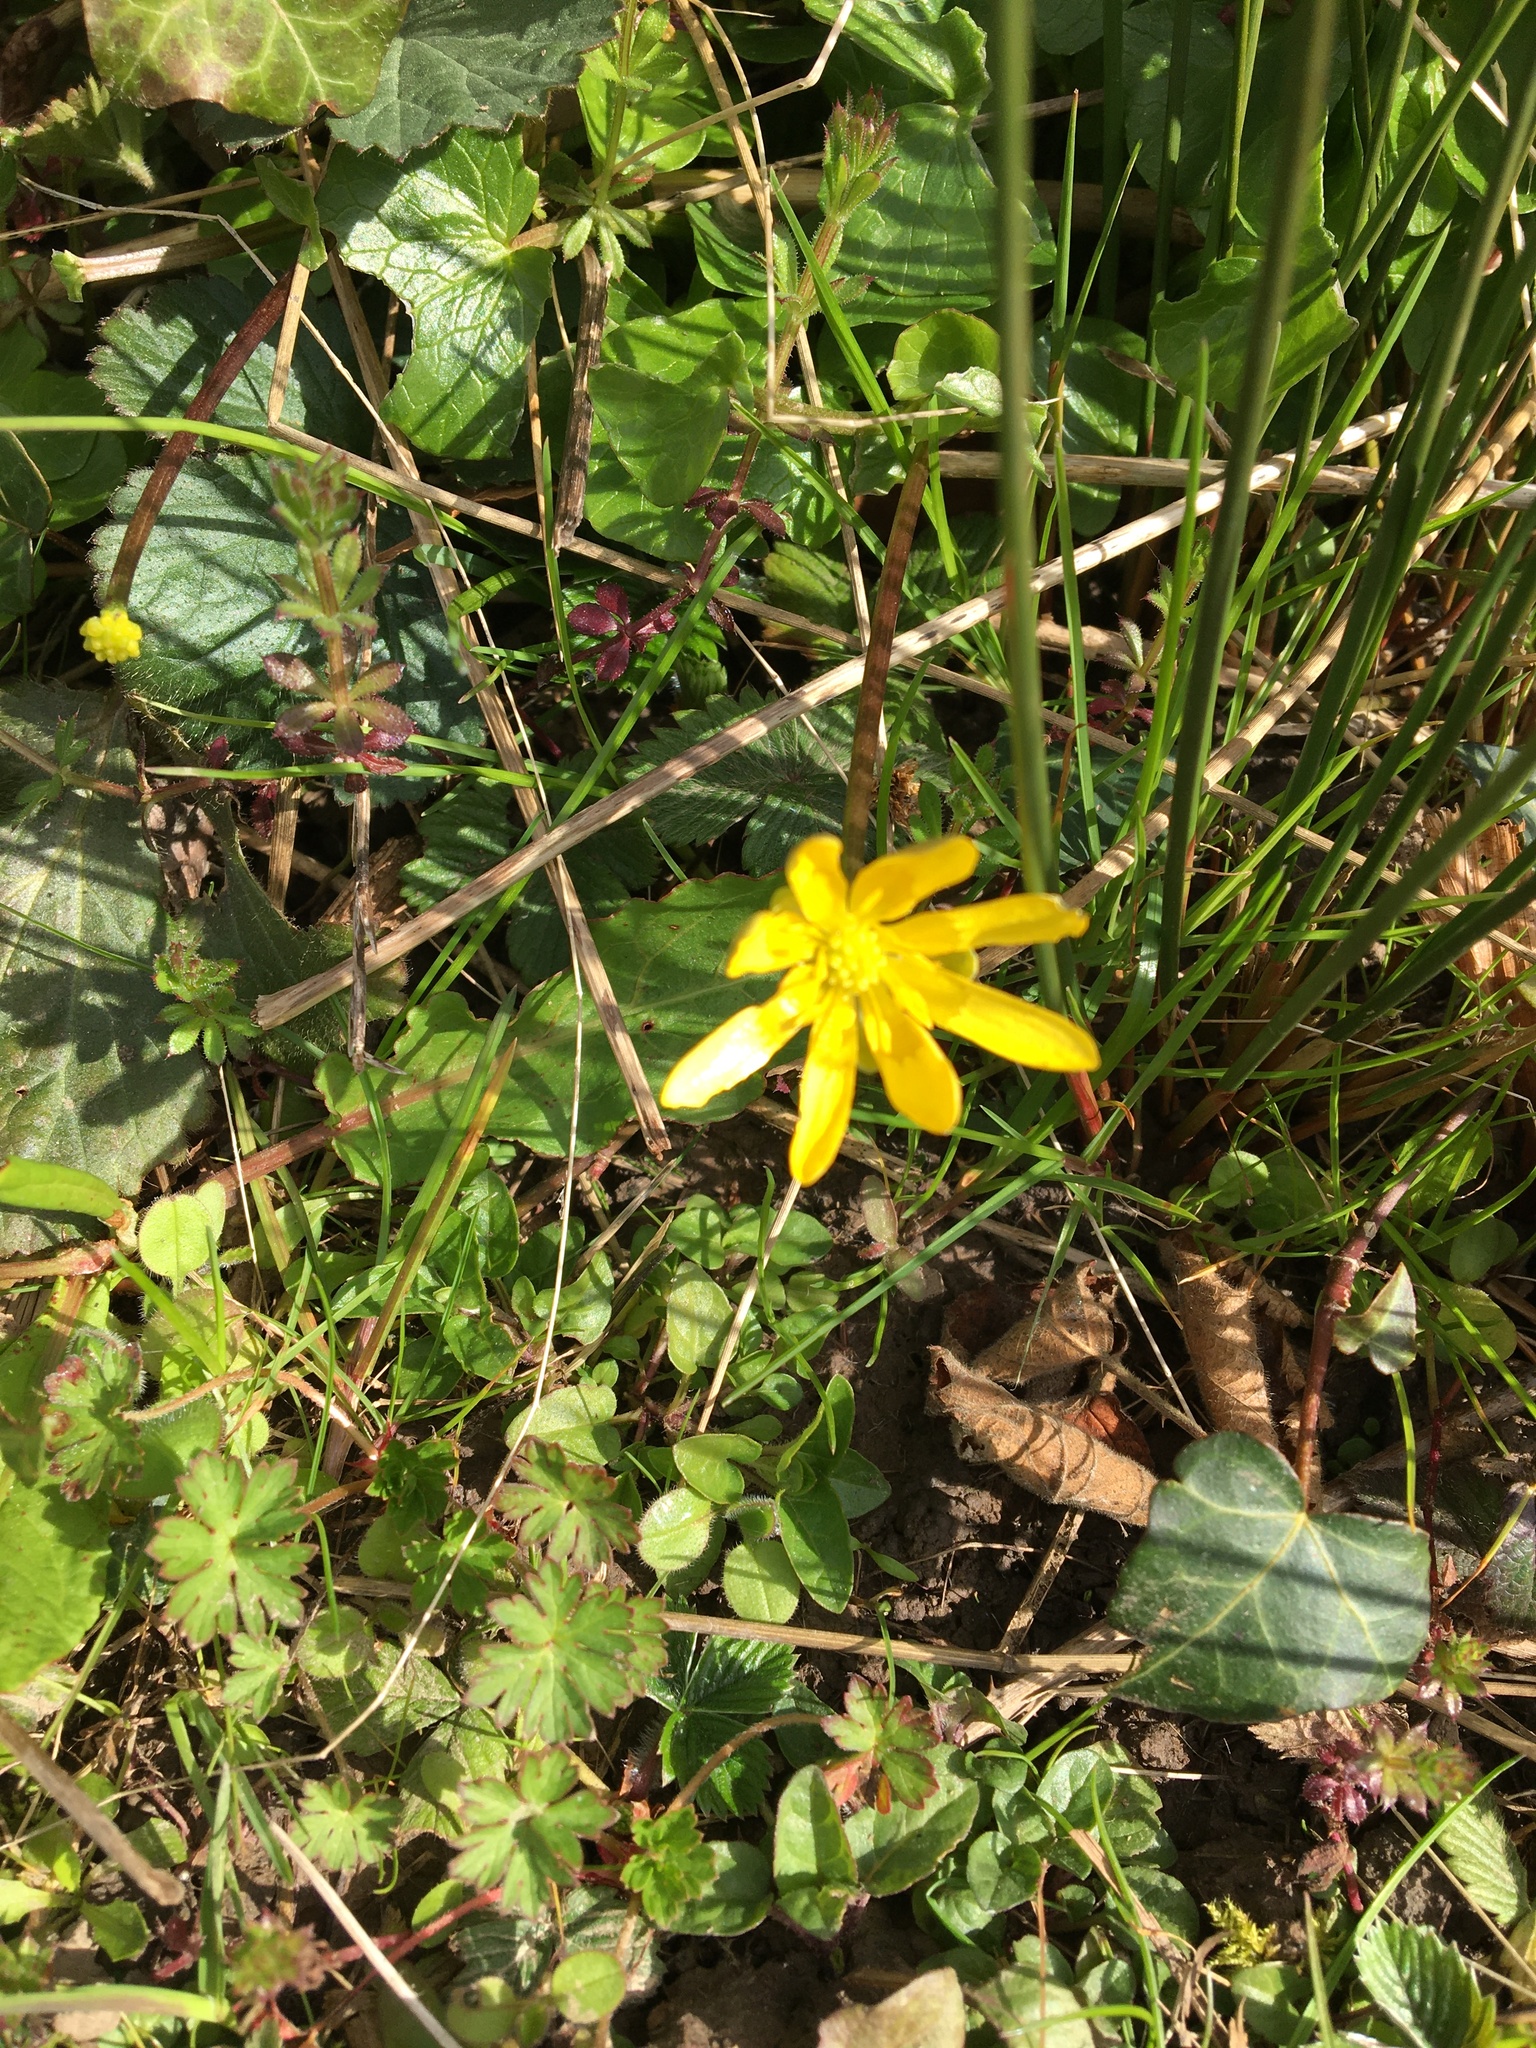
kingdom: Plantae
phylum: Tracheophyta
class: Magnoliopsida
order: Ranunculales
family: Ranunculaceae
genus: Ficaria
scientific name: Ficaria verna
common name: Lesser celandine
